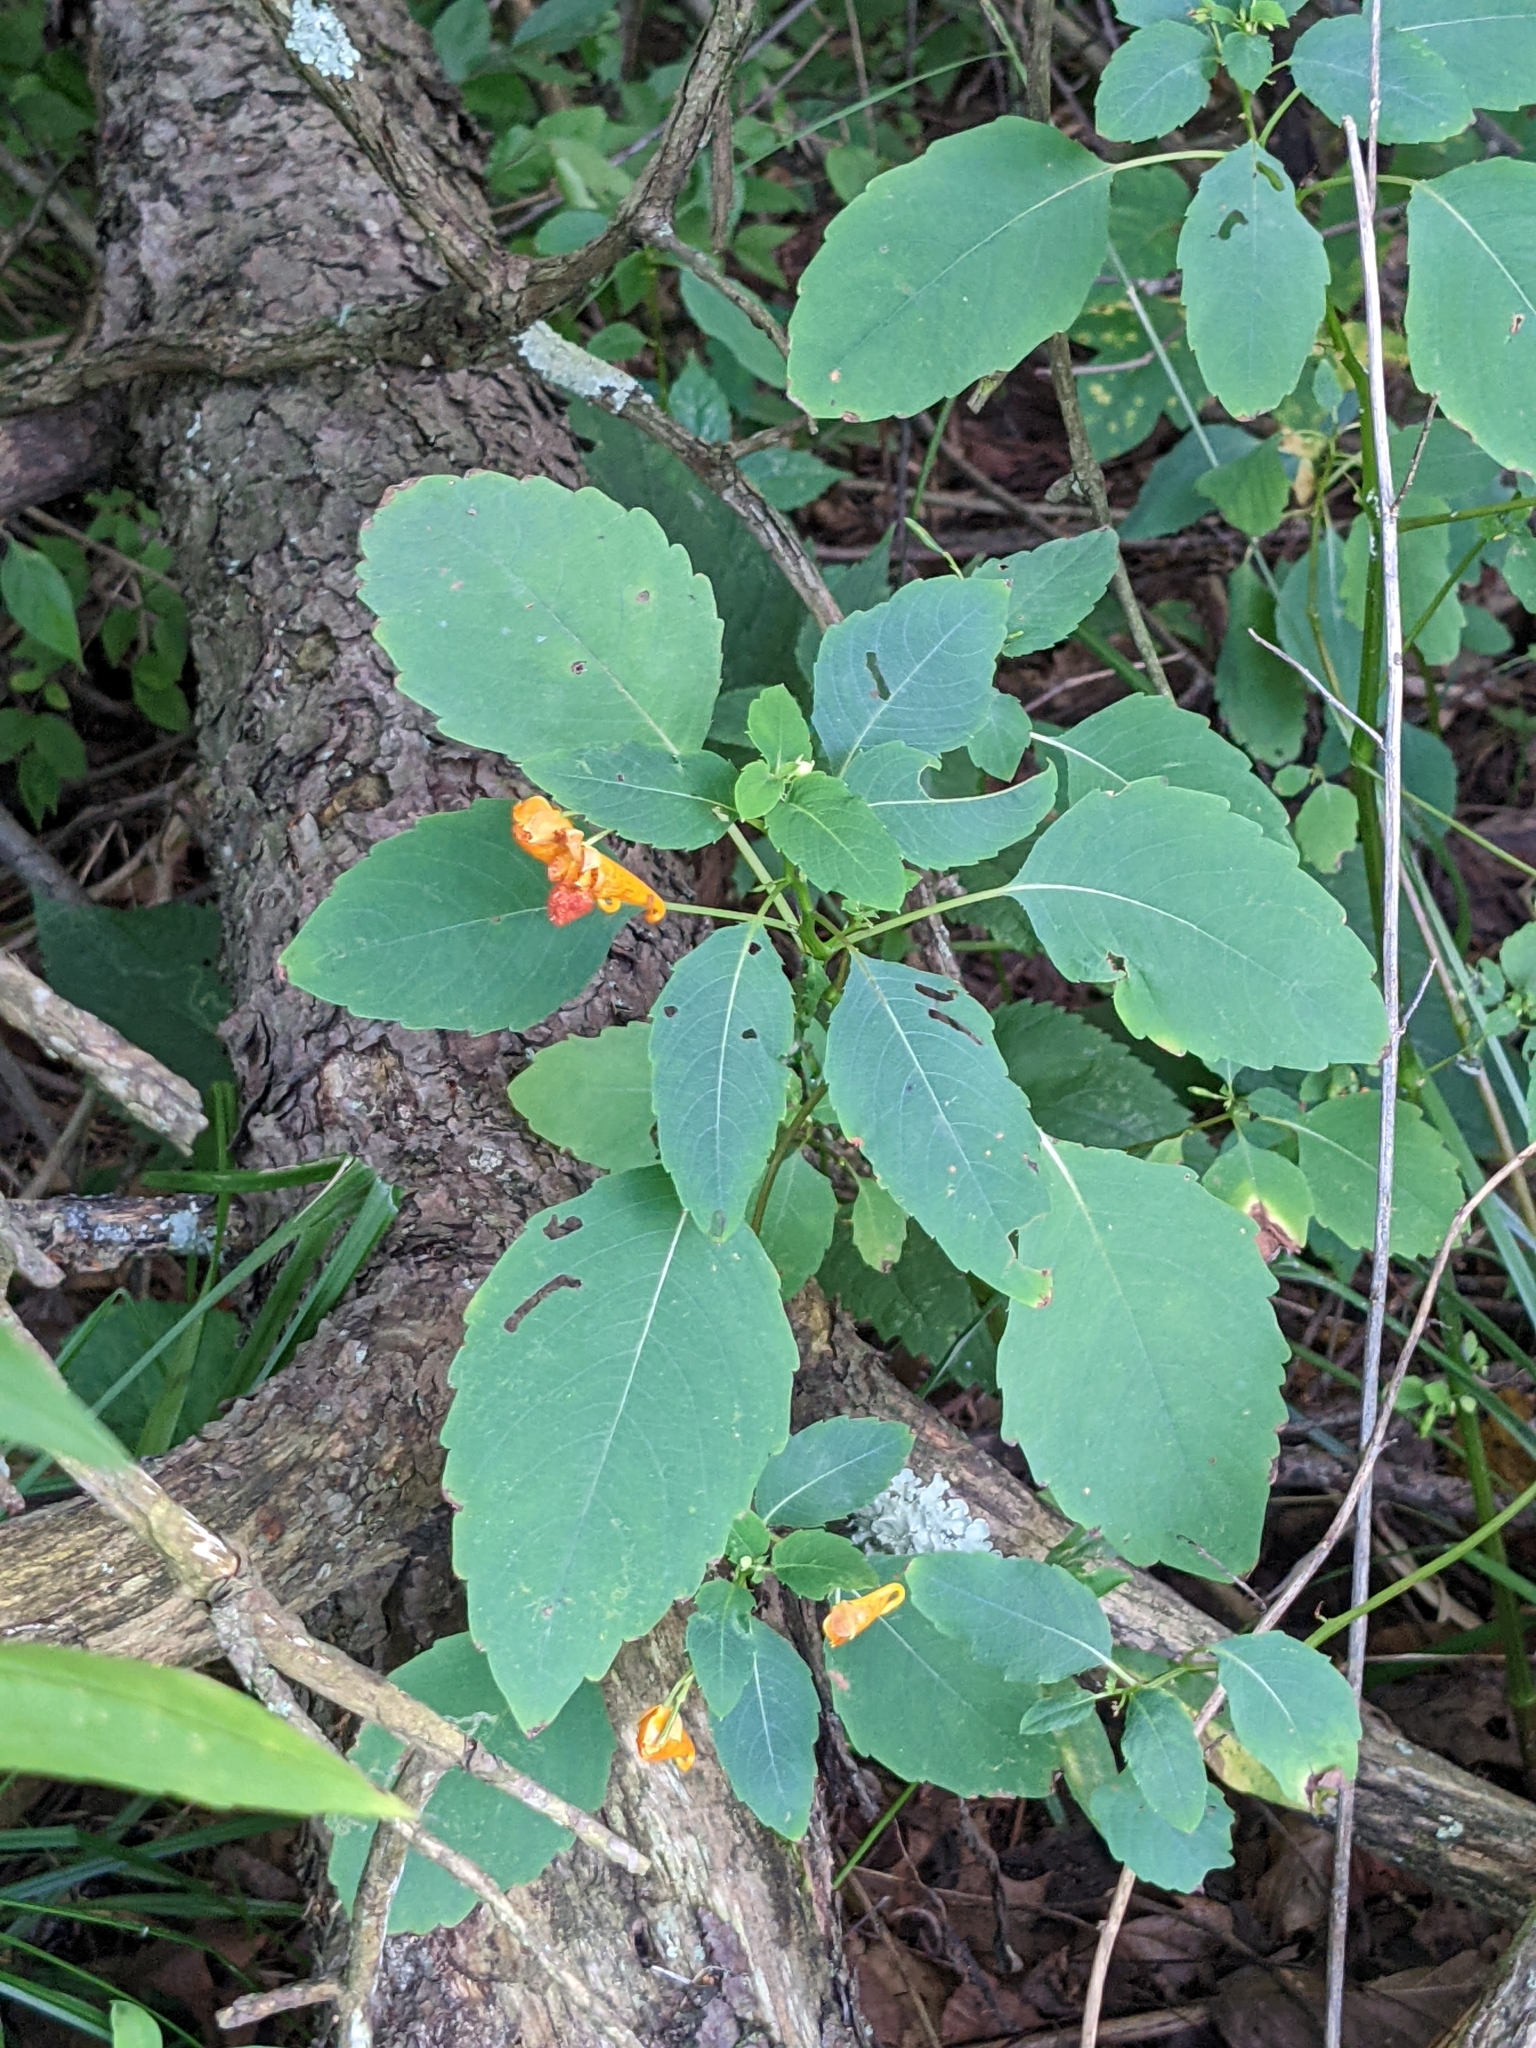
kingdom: Plantae
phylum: Tracheophyta
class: Magnoliopsida
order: Ericales
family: Balsaminaceae
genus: Impatiens
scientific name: Impatiens capensis
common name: Orange balsam
